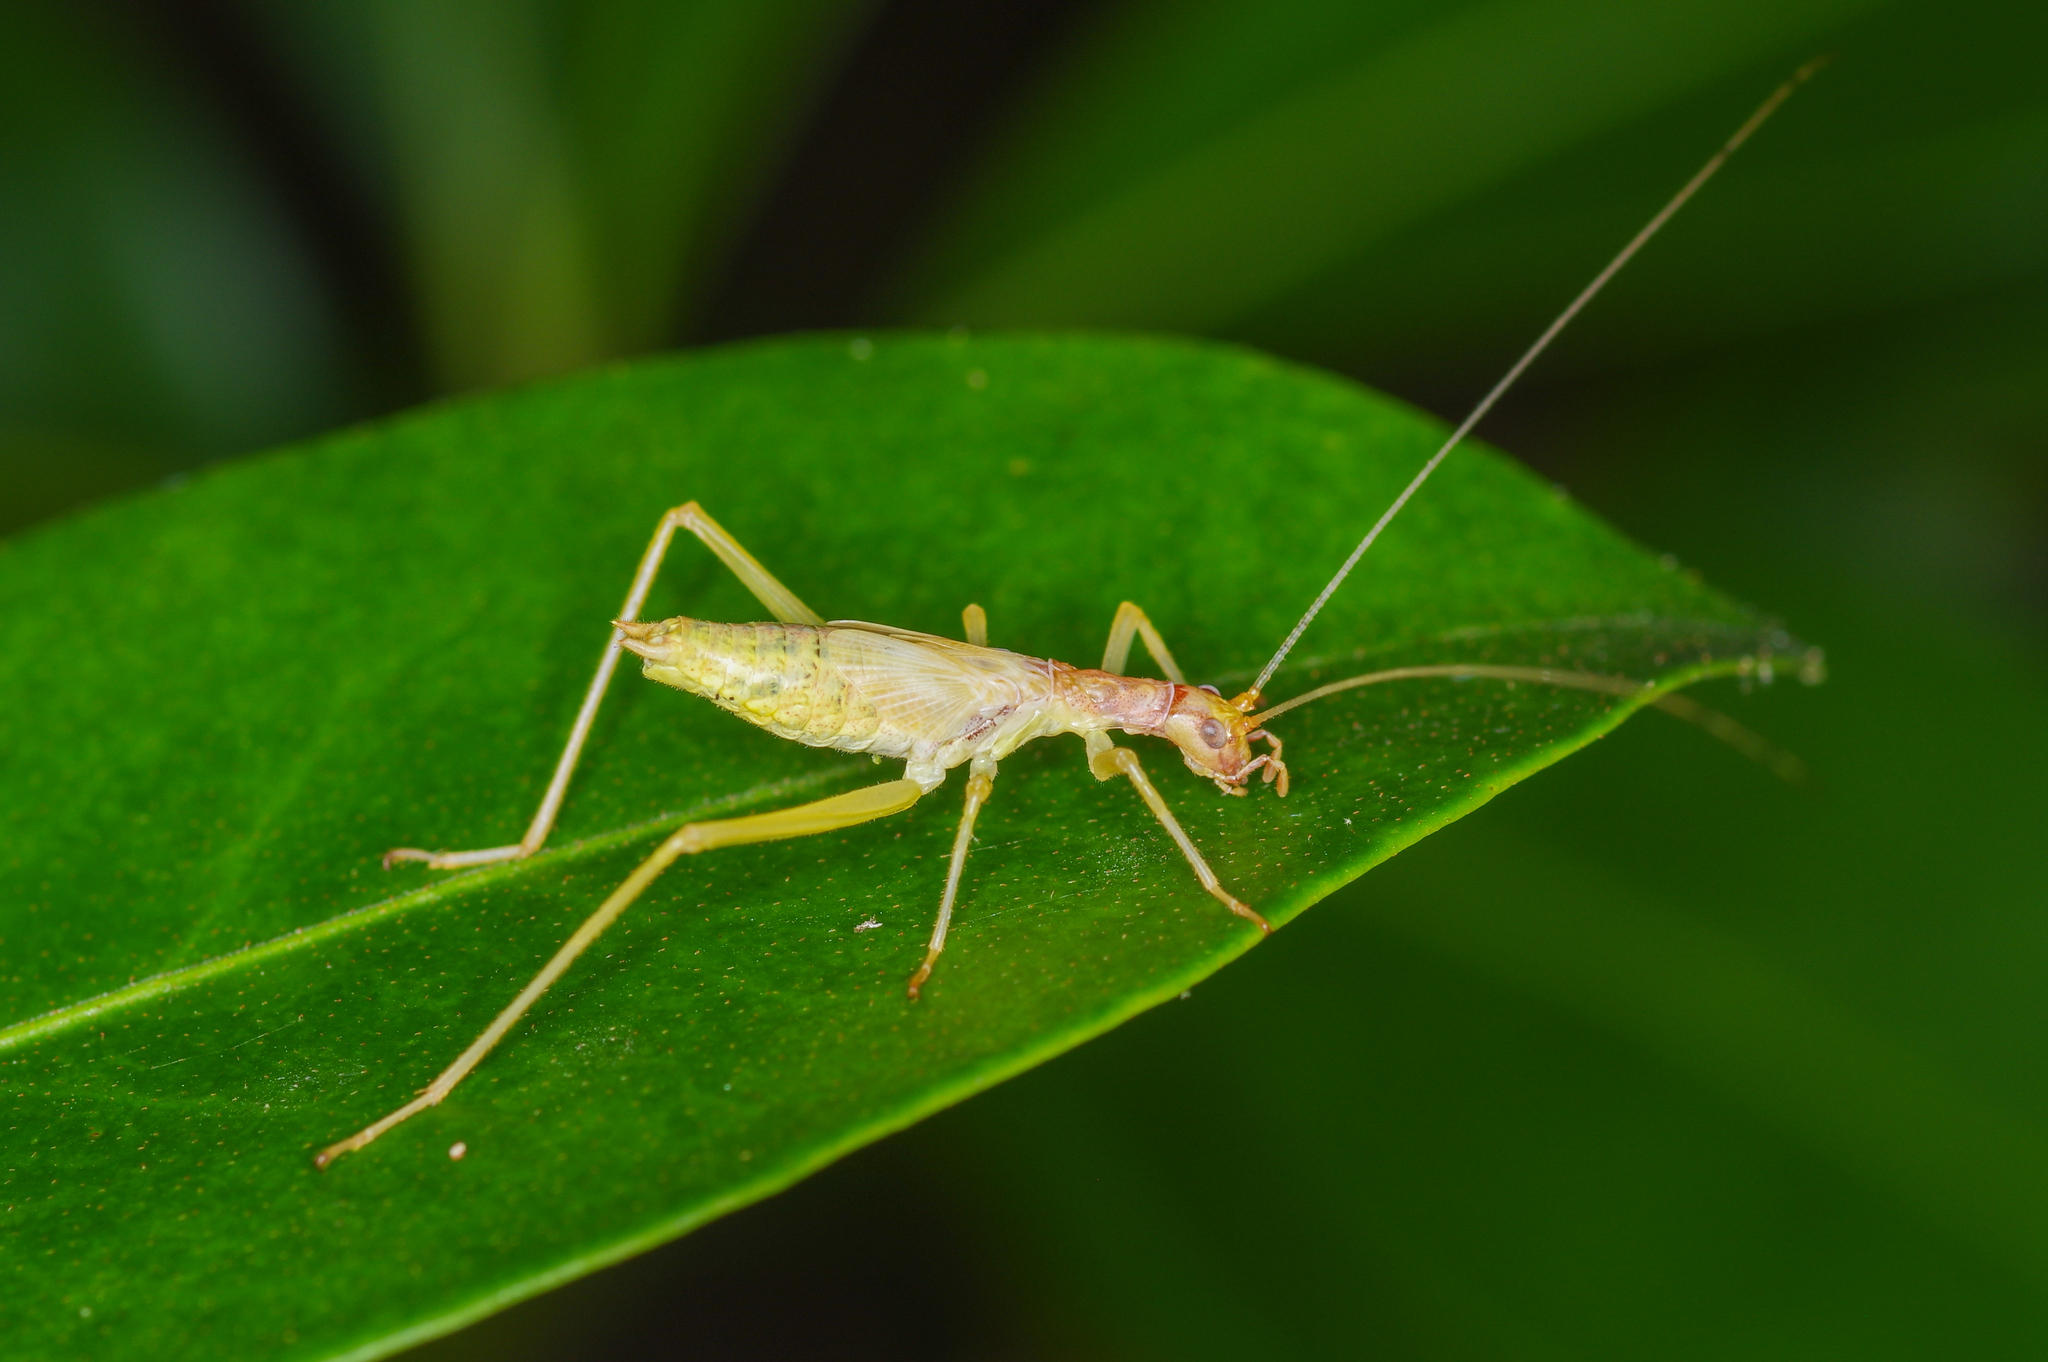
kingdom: Animalia
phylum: Arthropoda
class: Insecta
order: Orthoptera
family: Gryllidae
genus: Neoxabea
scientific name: Neoxabea bipunctata
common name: Two-spotted tree cricket
